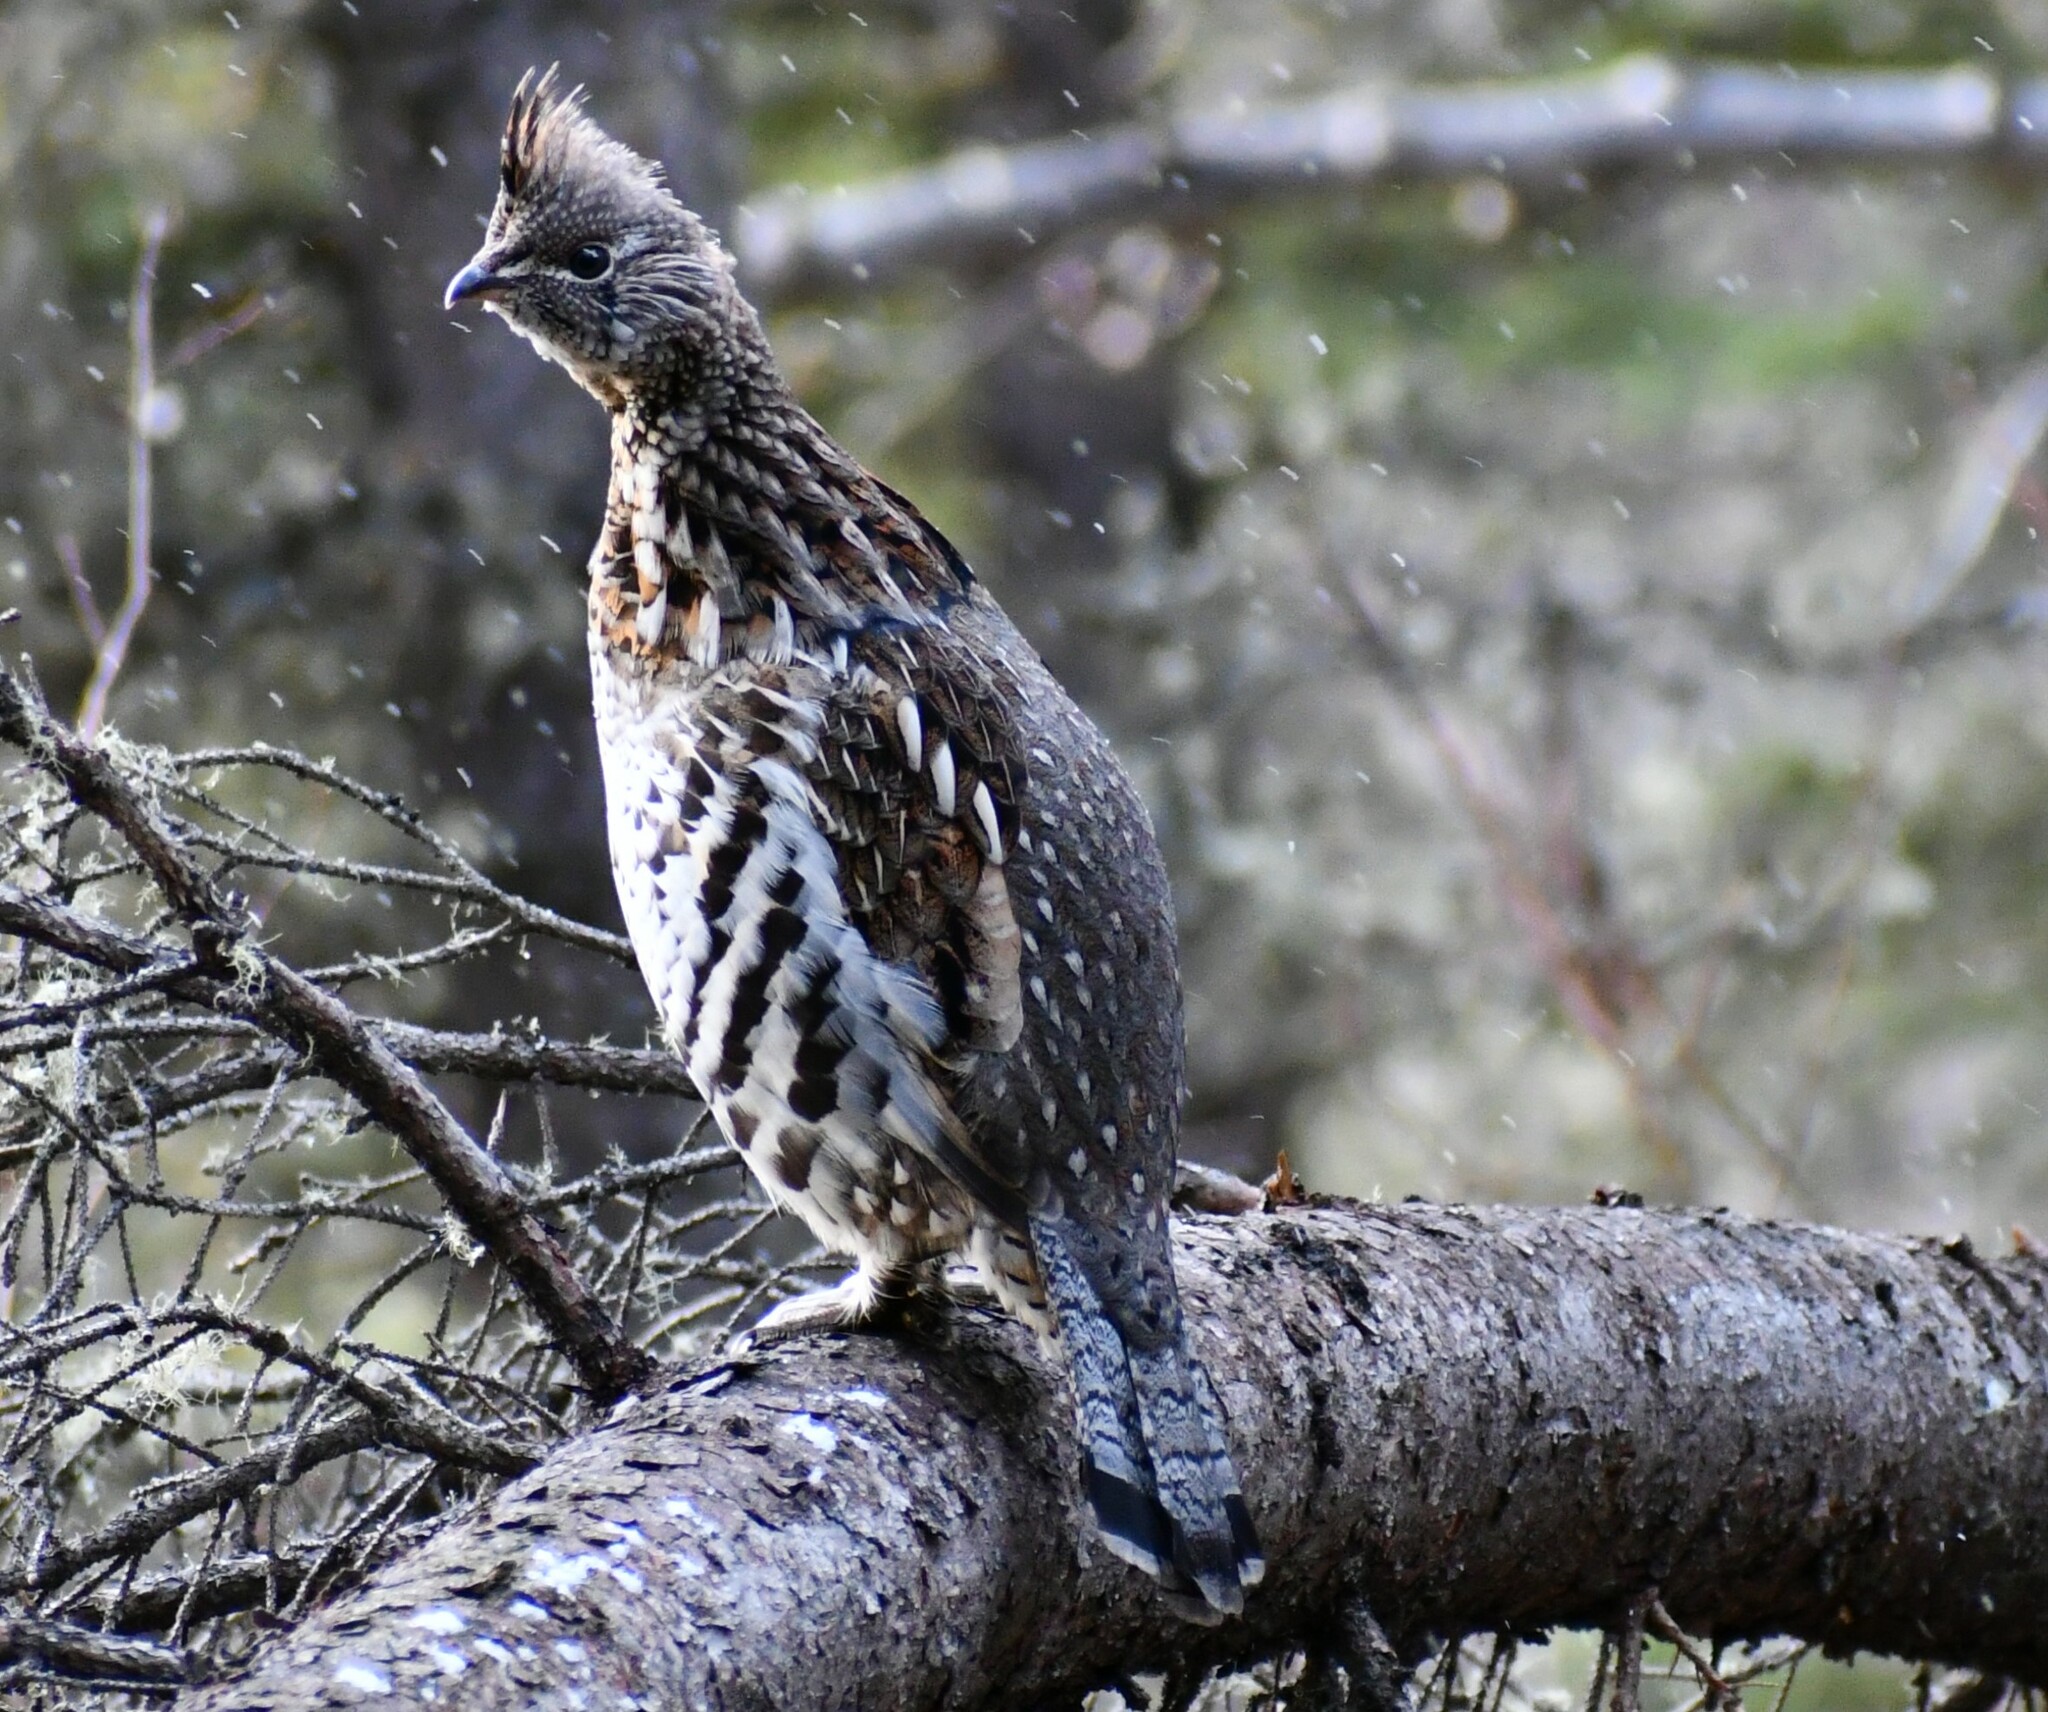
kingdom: Animalia
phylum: Chordata
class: Aves
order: Galliformes
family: Phasianidae
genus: Bonasa
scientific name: Bonasa umbellus
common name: Ruffed grouse
